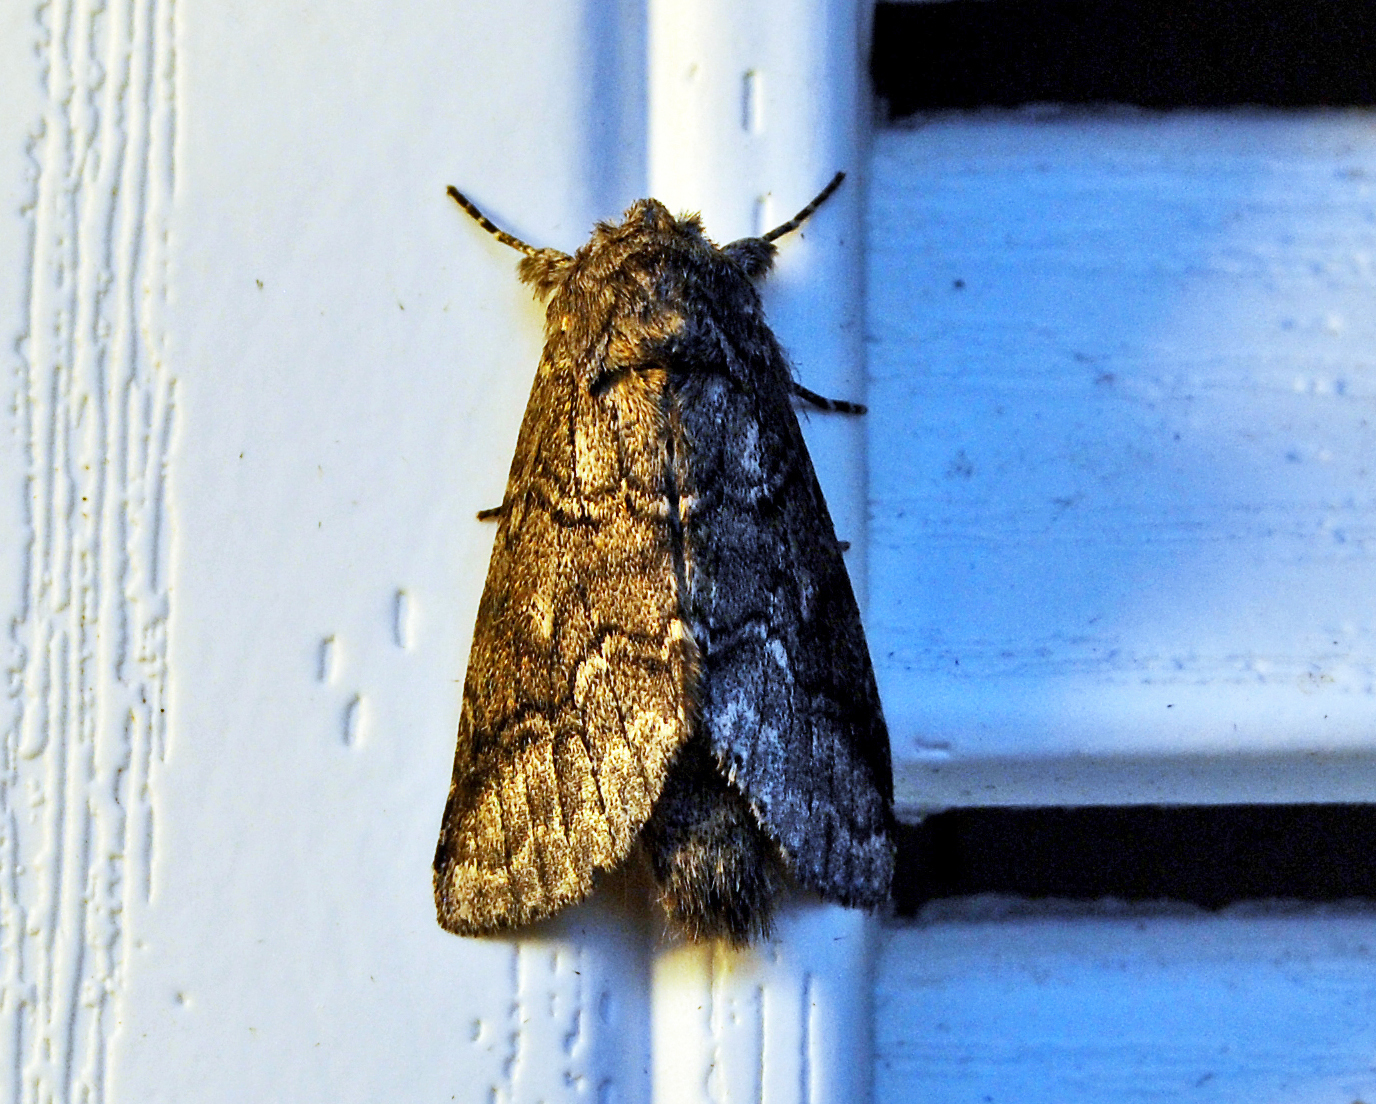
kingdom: Animalia
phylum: Arthropoda
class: Insecta
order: Lepidoptera
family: Notodontidae
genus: Lochmaeus
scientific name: Lochmaeus bilineata
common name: Double-lined prominent
